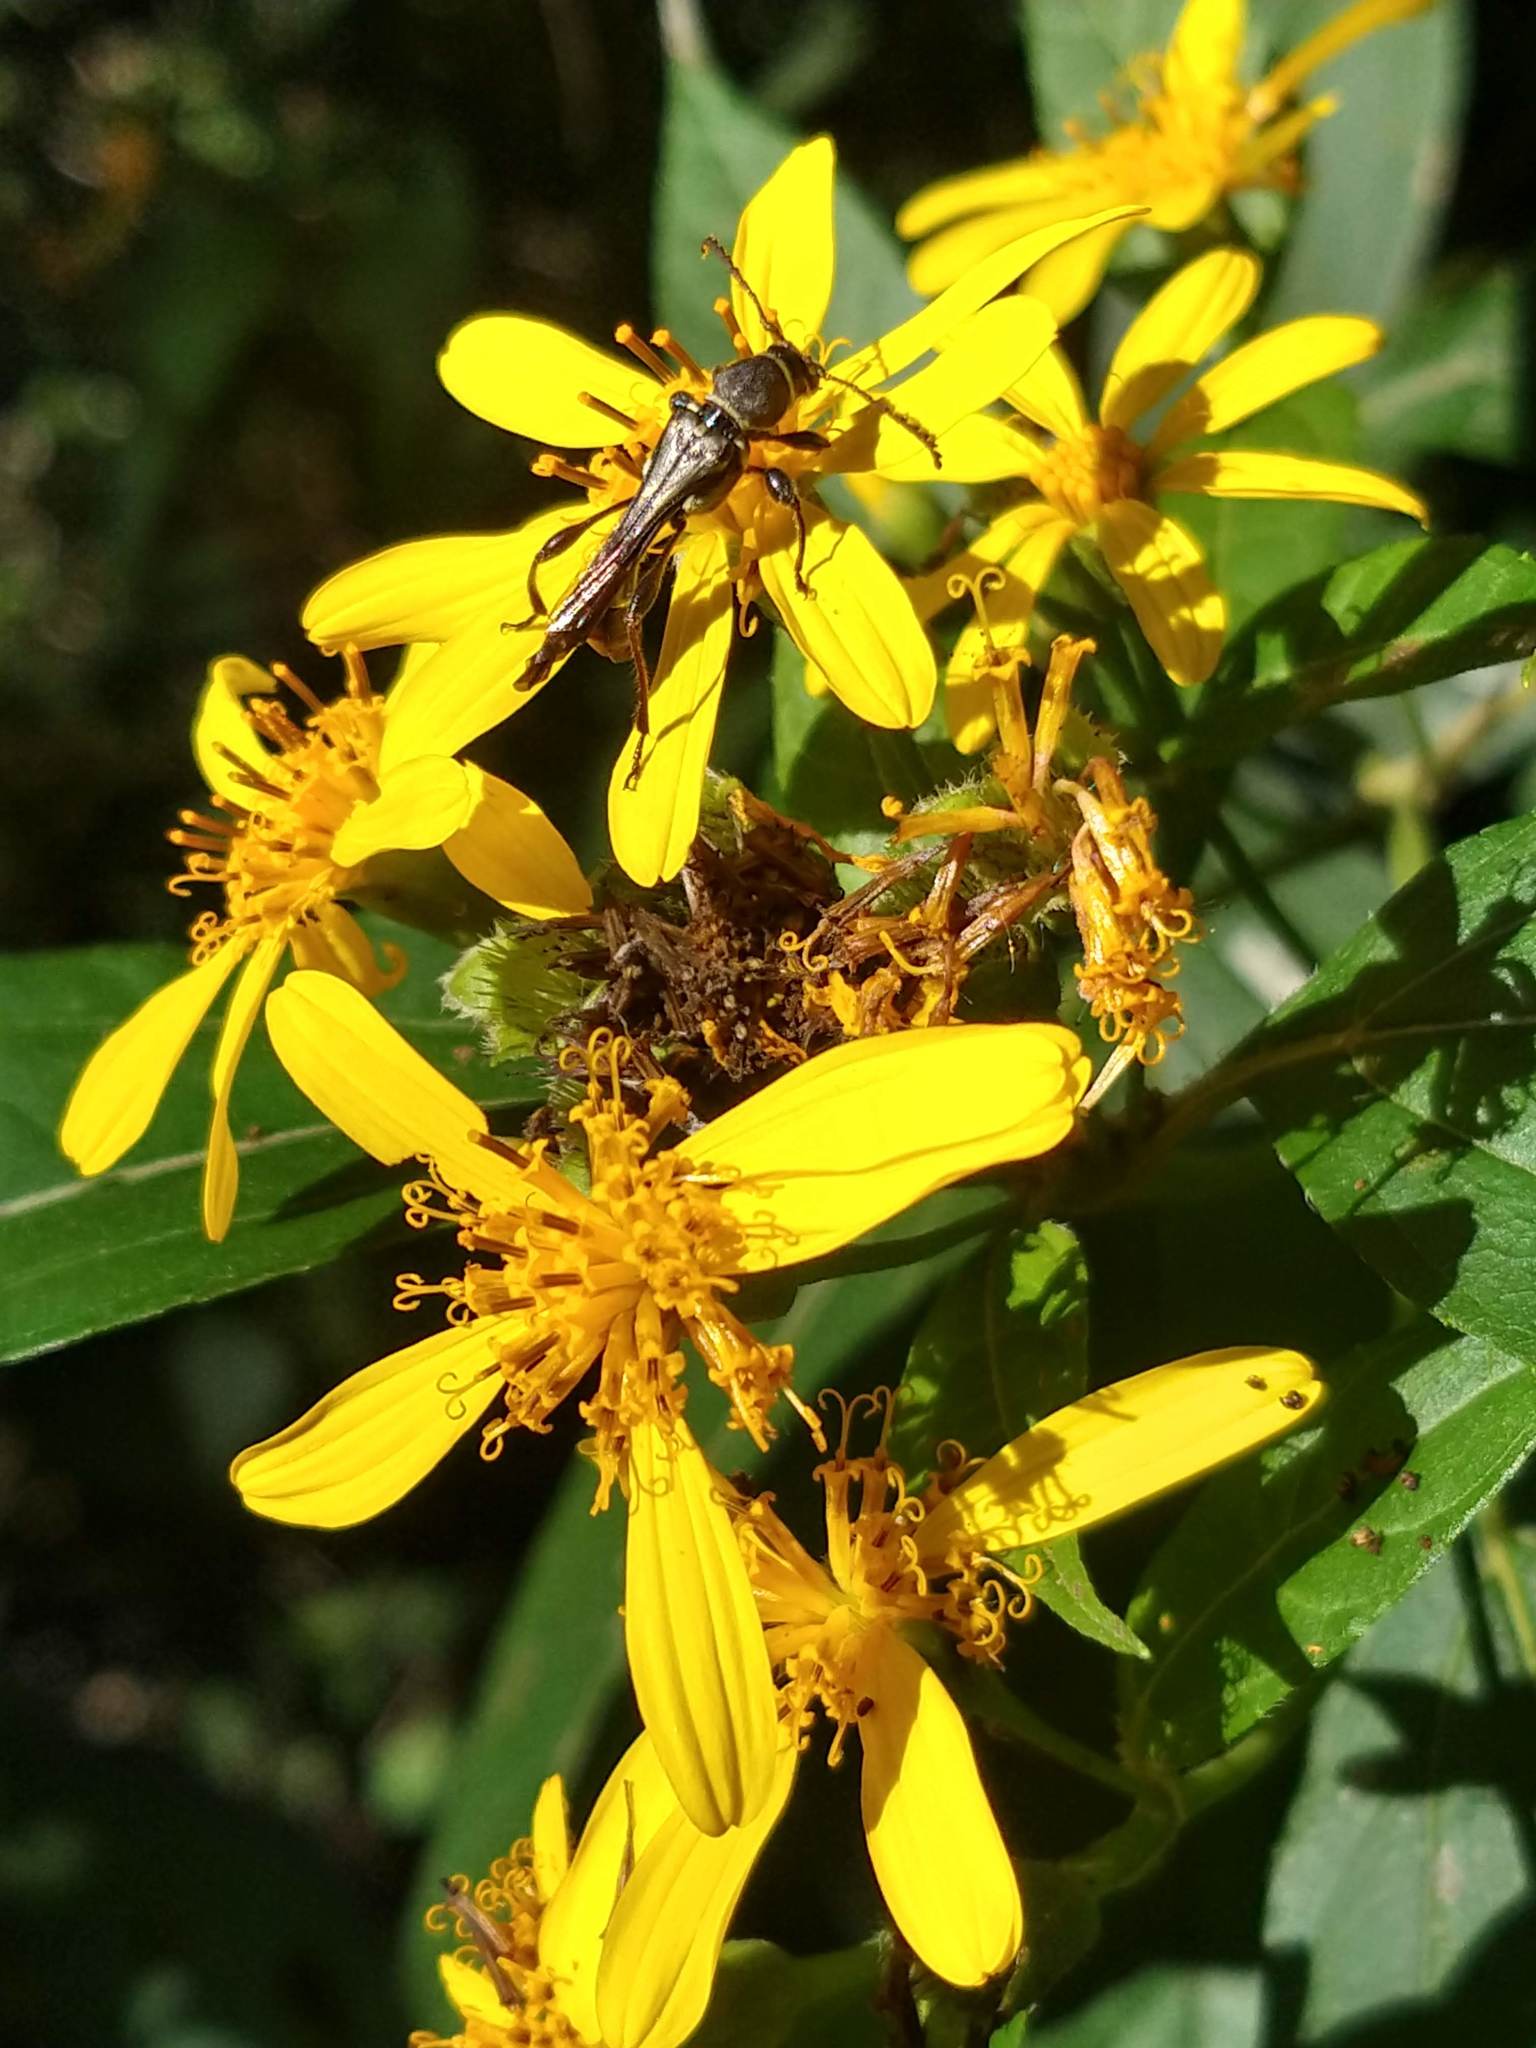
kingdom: Animalia
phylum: Arthropoda
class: Insecta
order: Coleoptera
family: Cerambycidae
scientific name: Cerambycidae
